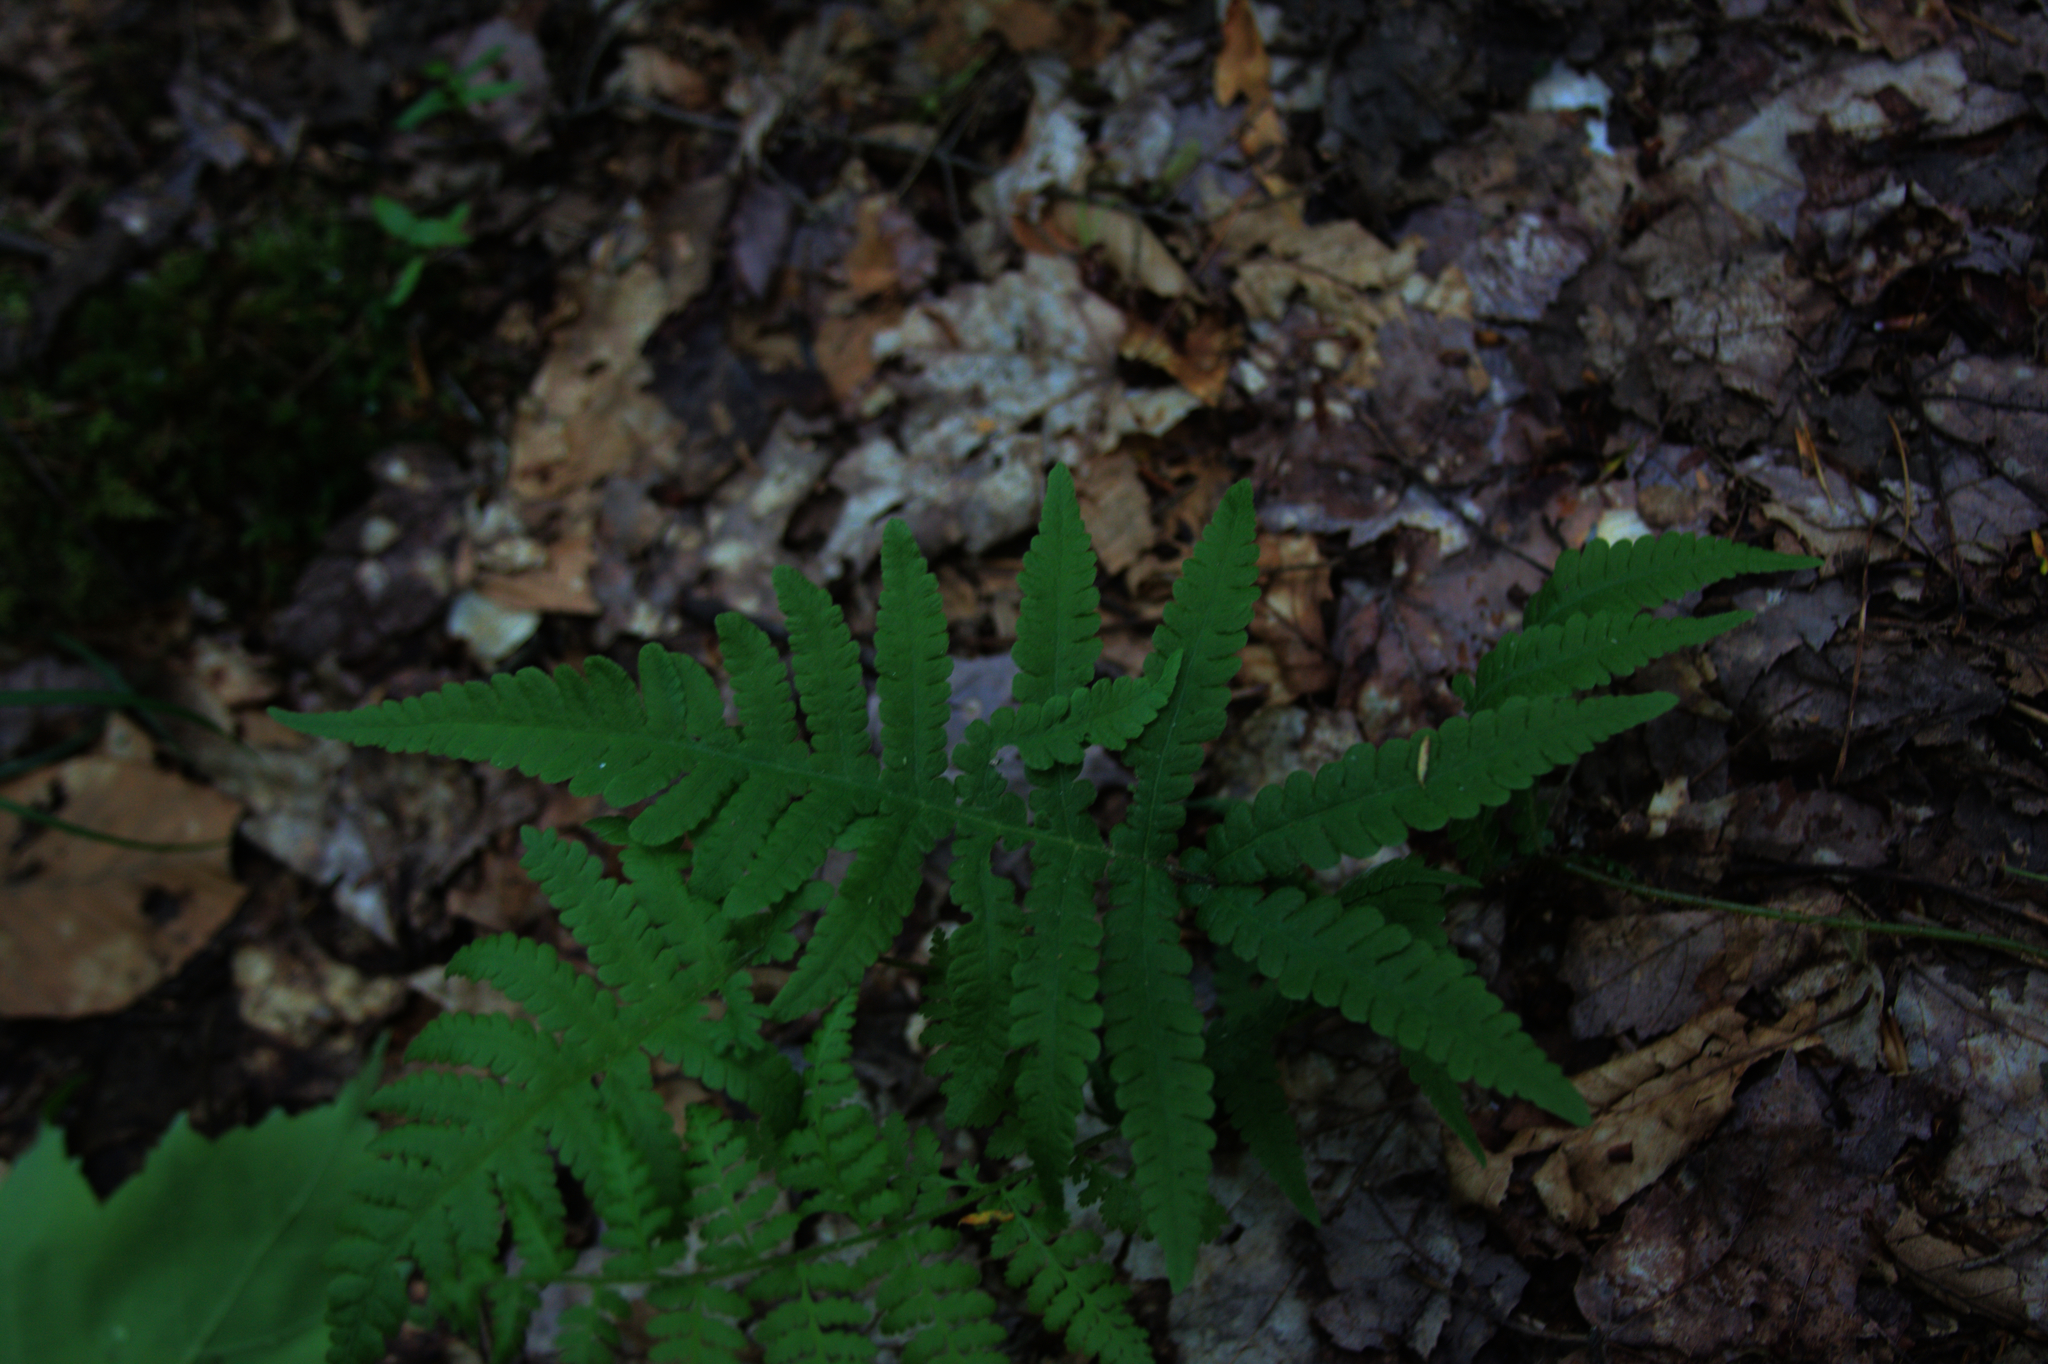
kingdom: Plantae
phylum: Tracheophyta
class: Polypodiopsida
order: Polypodiales
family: Thelypteridaceae
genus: Phegopteris
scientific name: Phegopteris connectilis
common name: Beech fern
